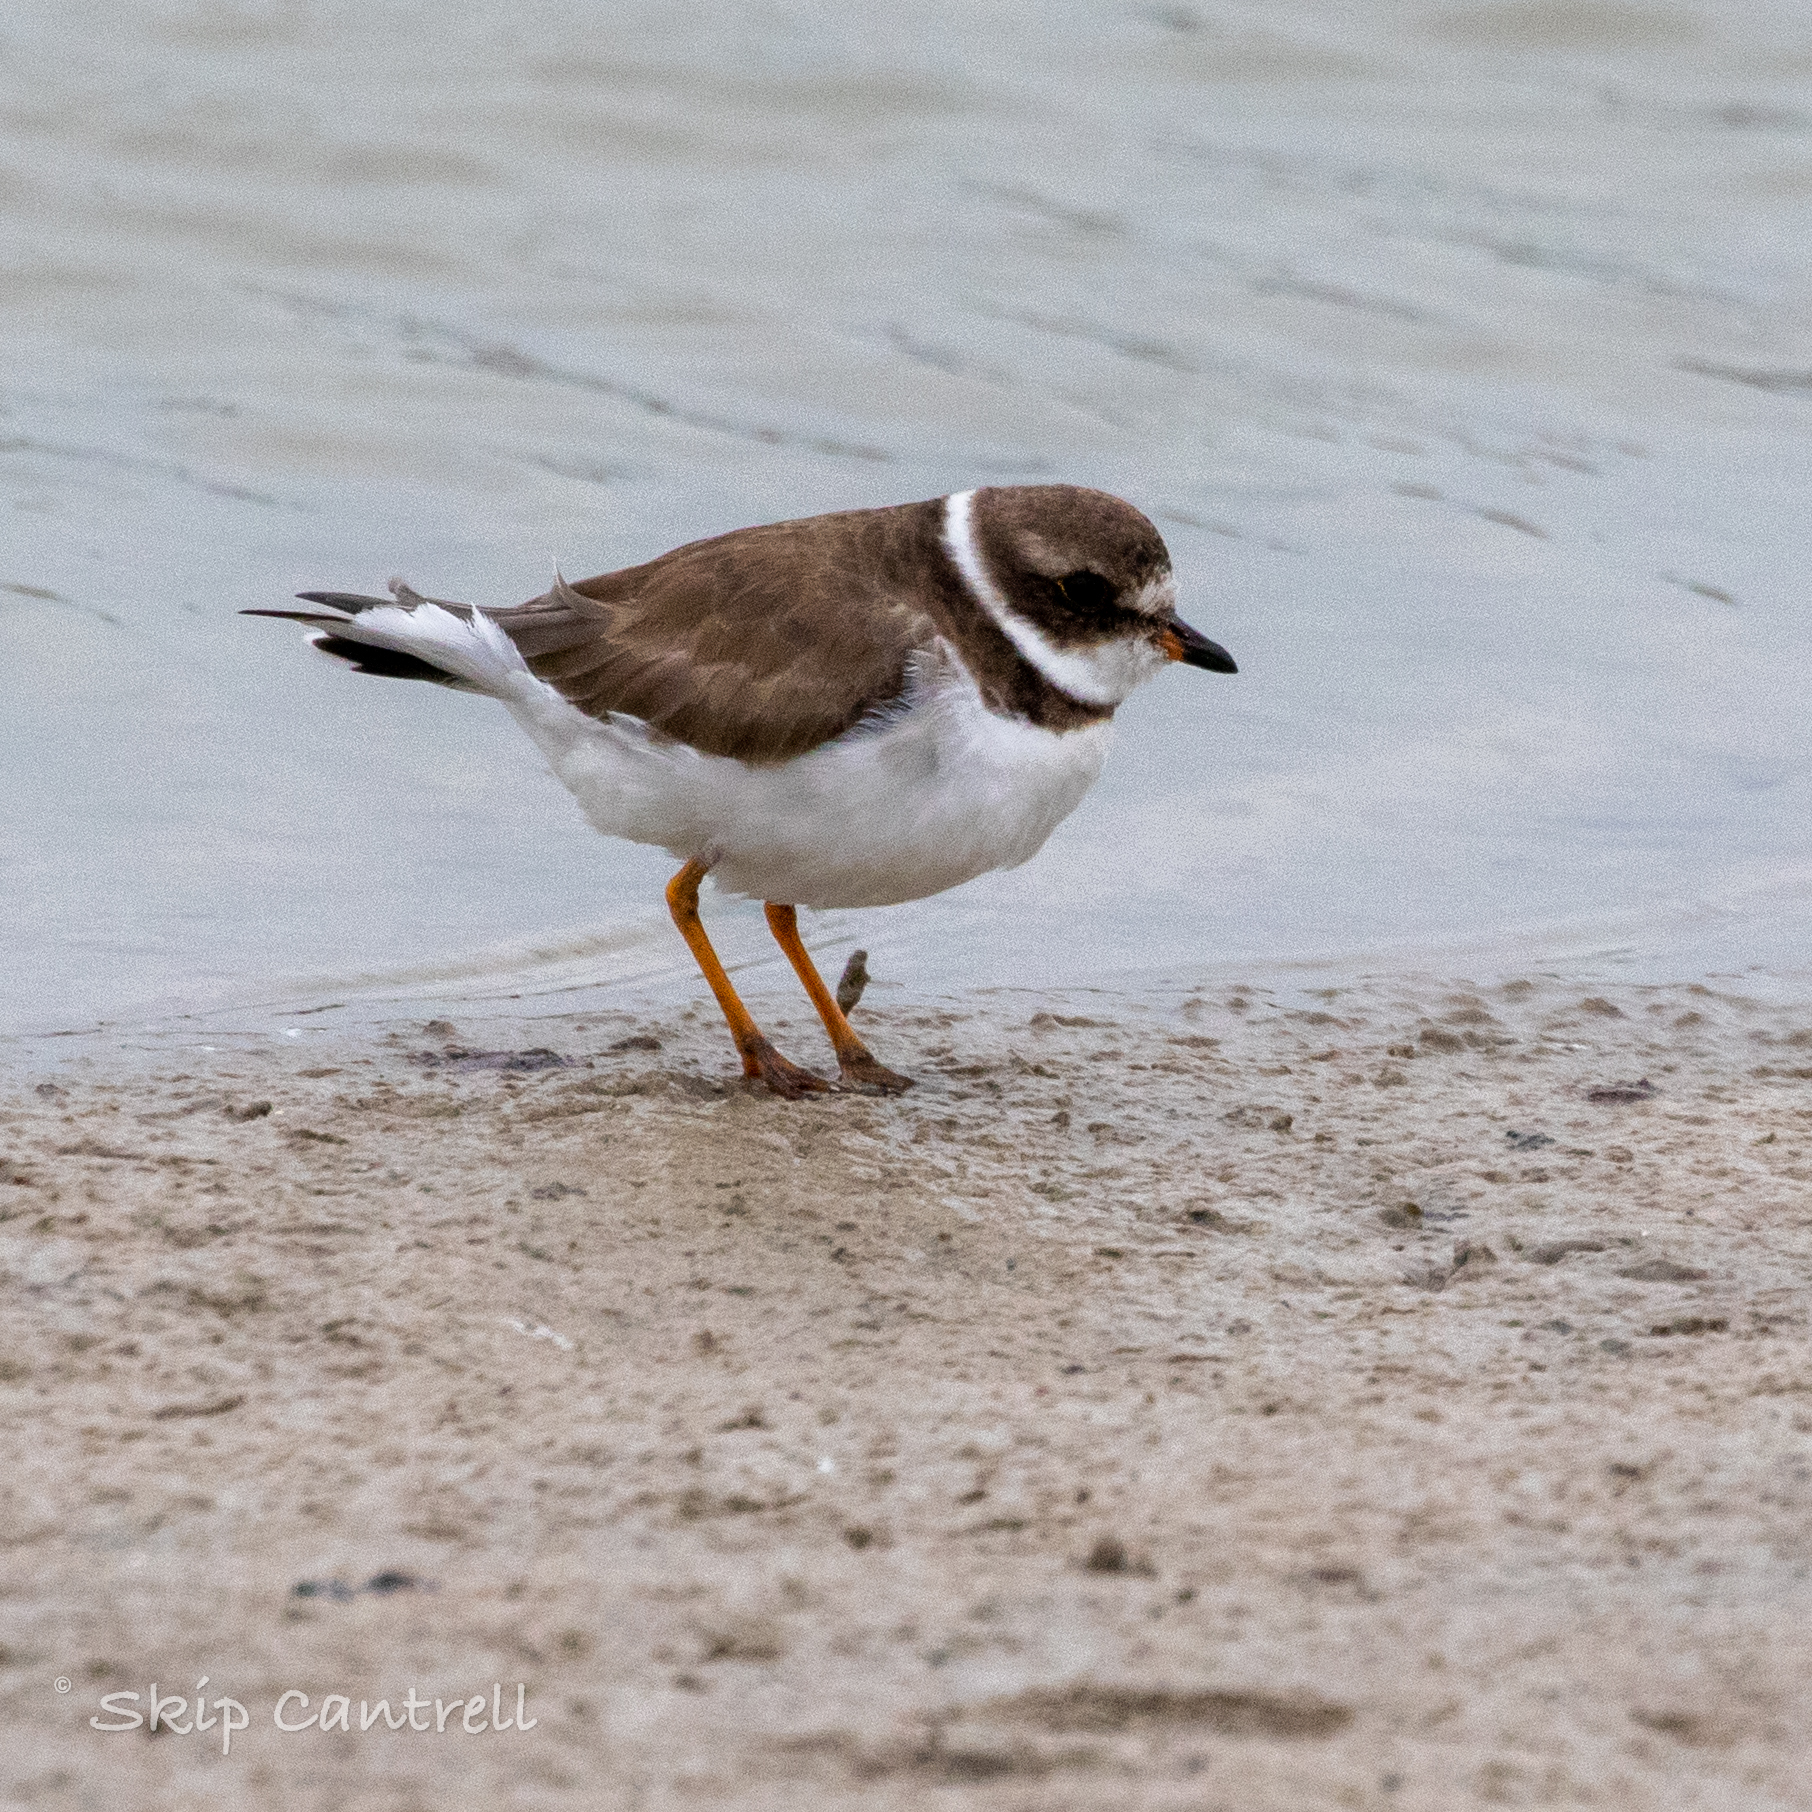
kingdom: Animalia
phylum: Chordata
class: Aves
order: Charadriiformes
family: Charadriidae
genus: Charadrius
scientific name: Charadrius semipalmatus
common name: Semipalmated plover
